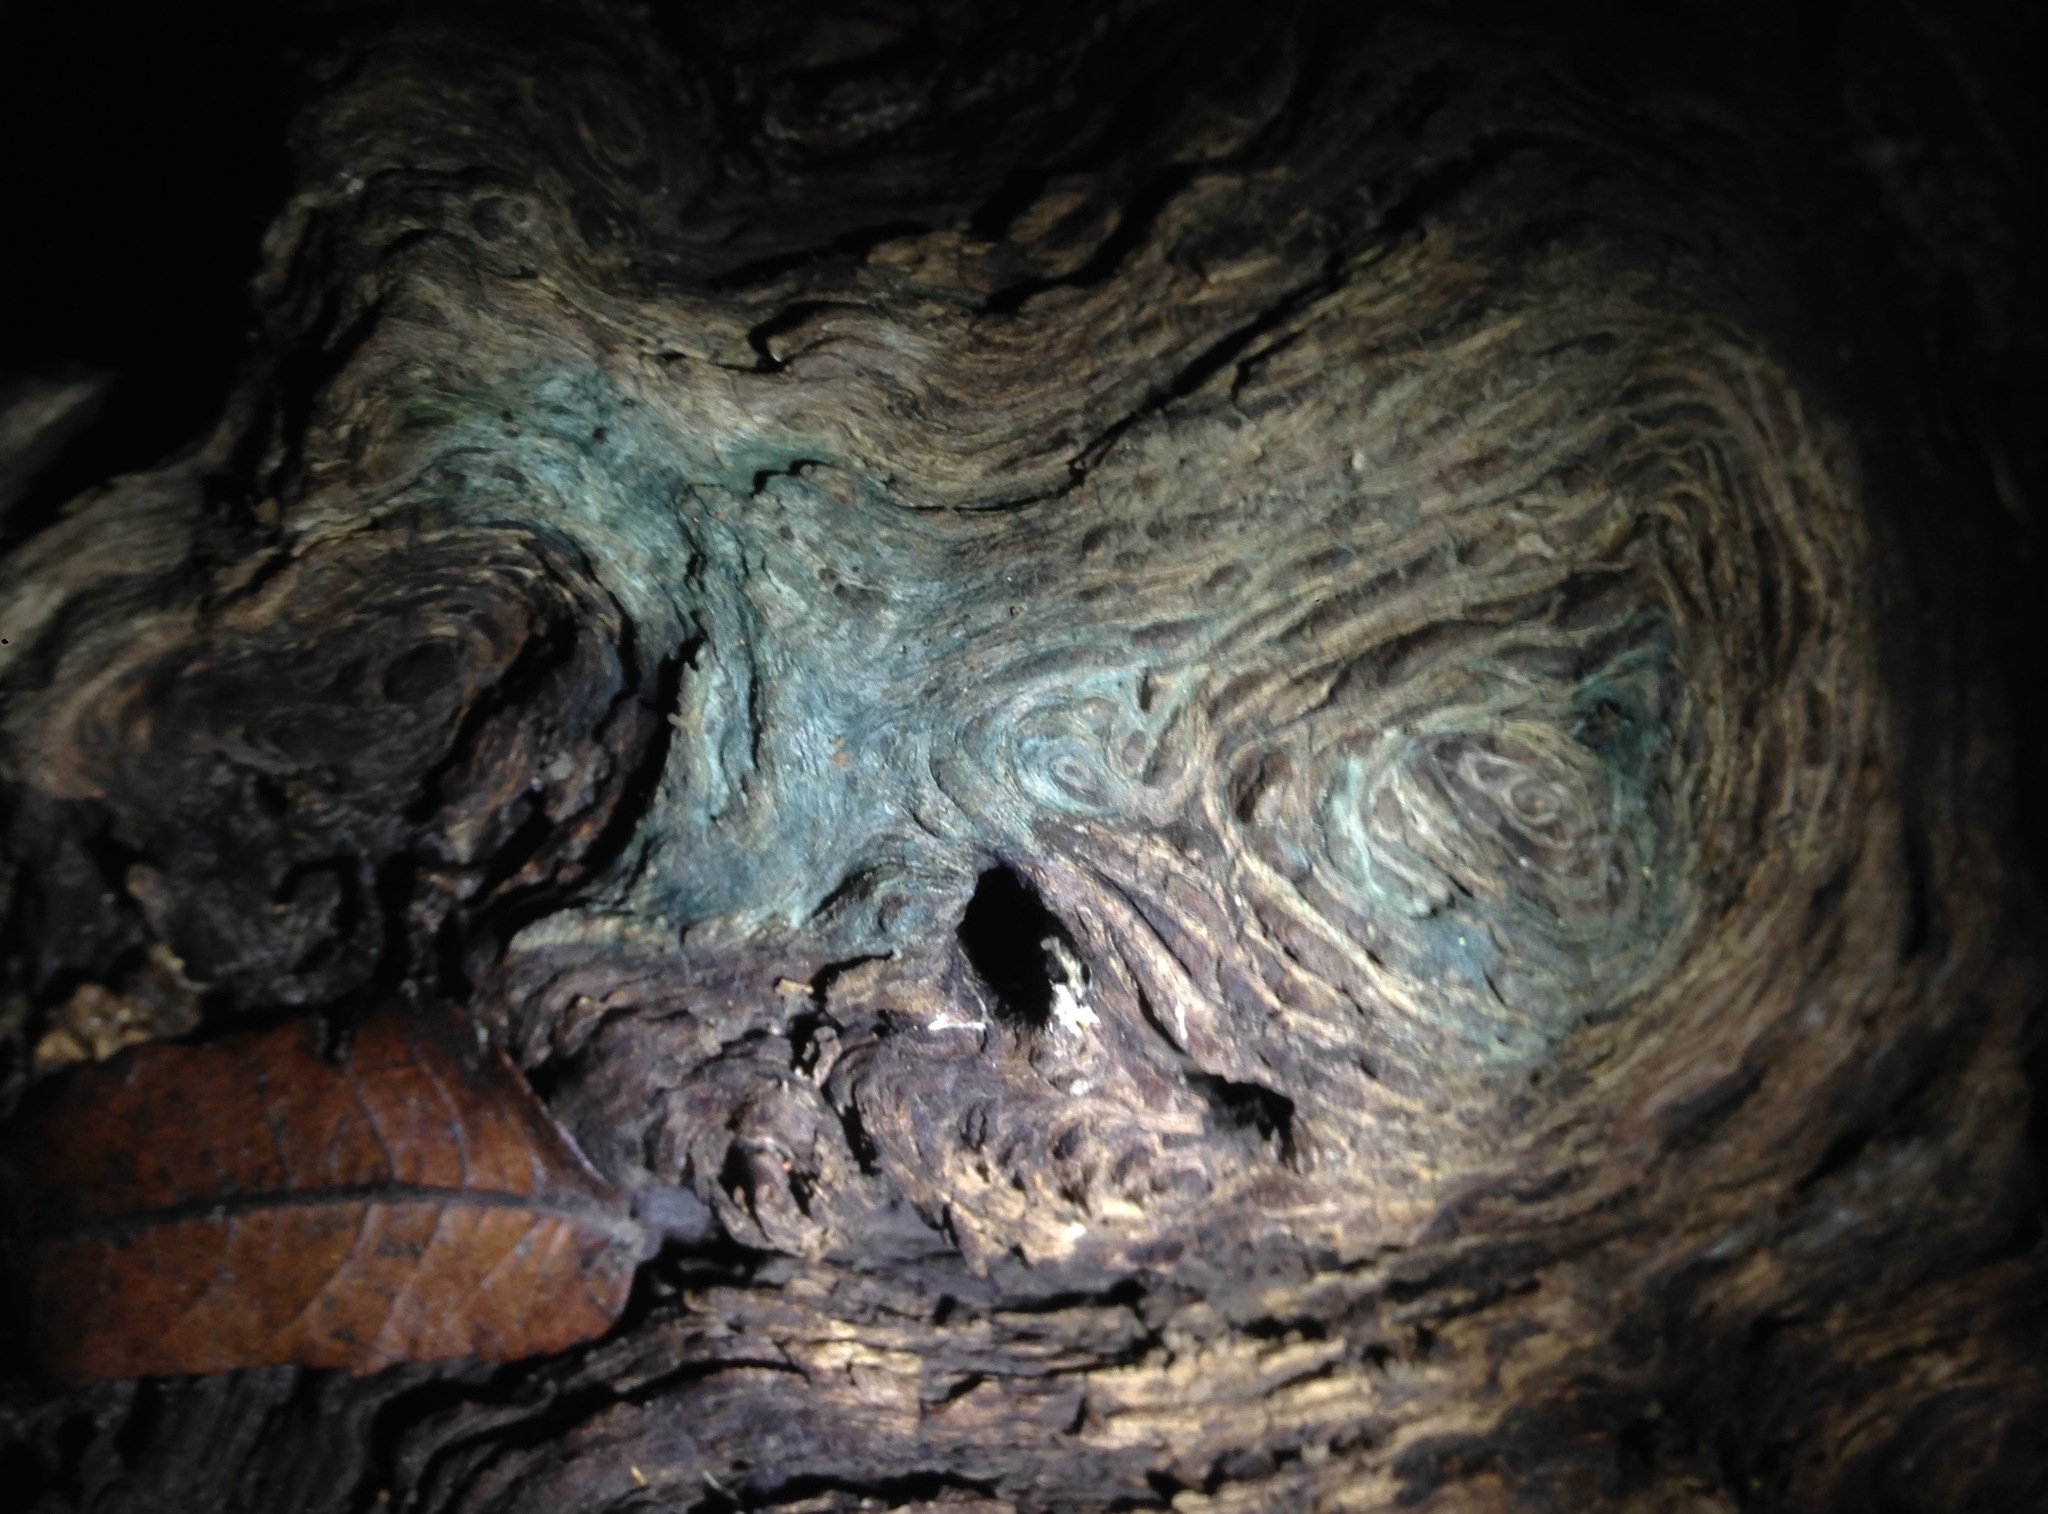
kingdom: Fungi
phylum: Ascomycota
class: Leotiomycetes
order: Helotiales
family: Chlorociboriaceae
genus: Chlorociboria
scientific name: Chlorociboria
